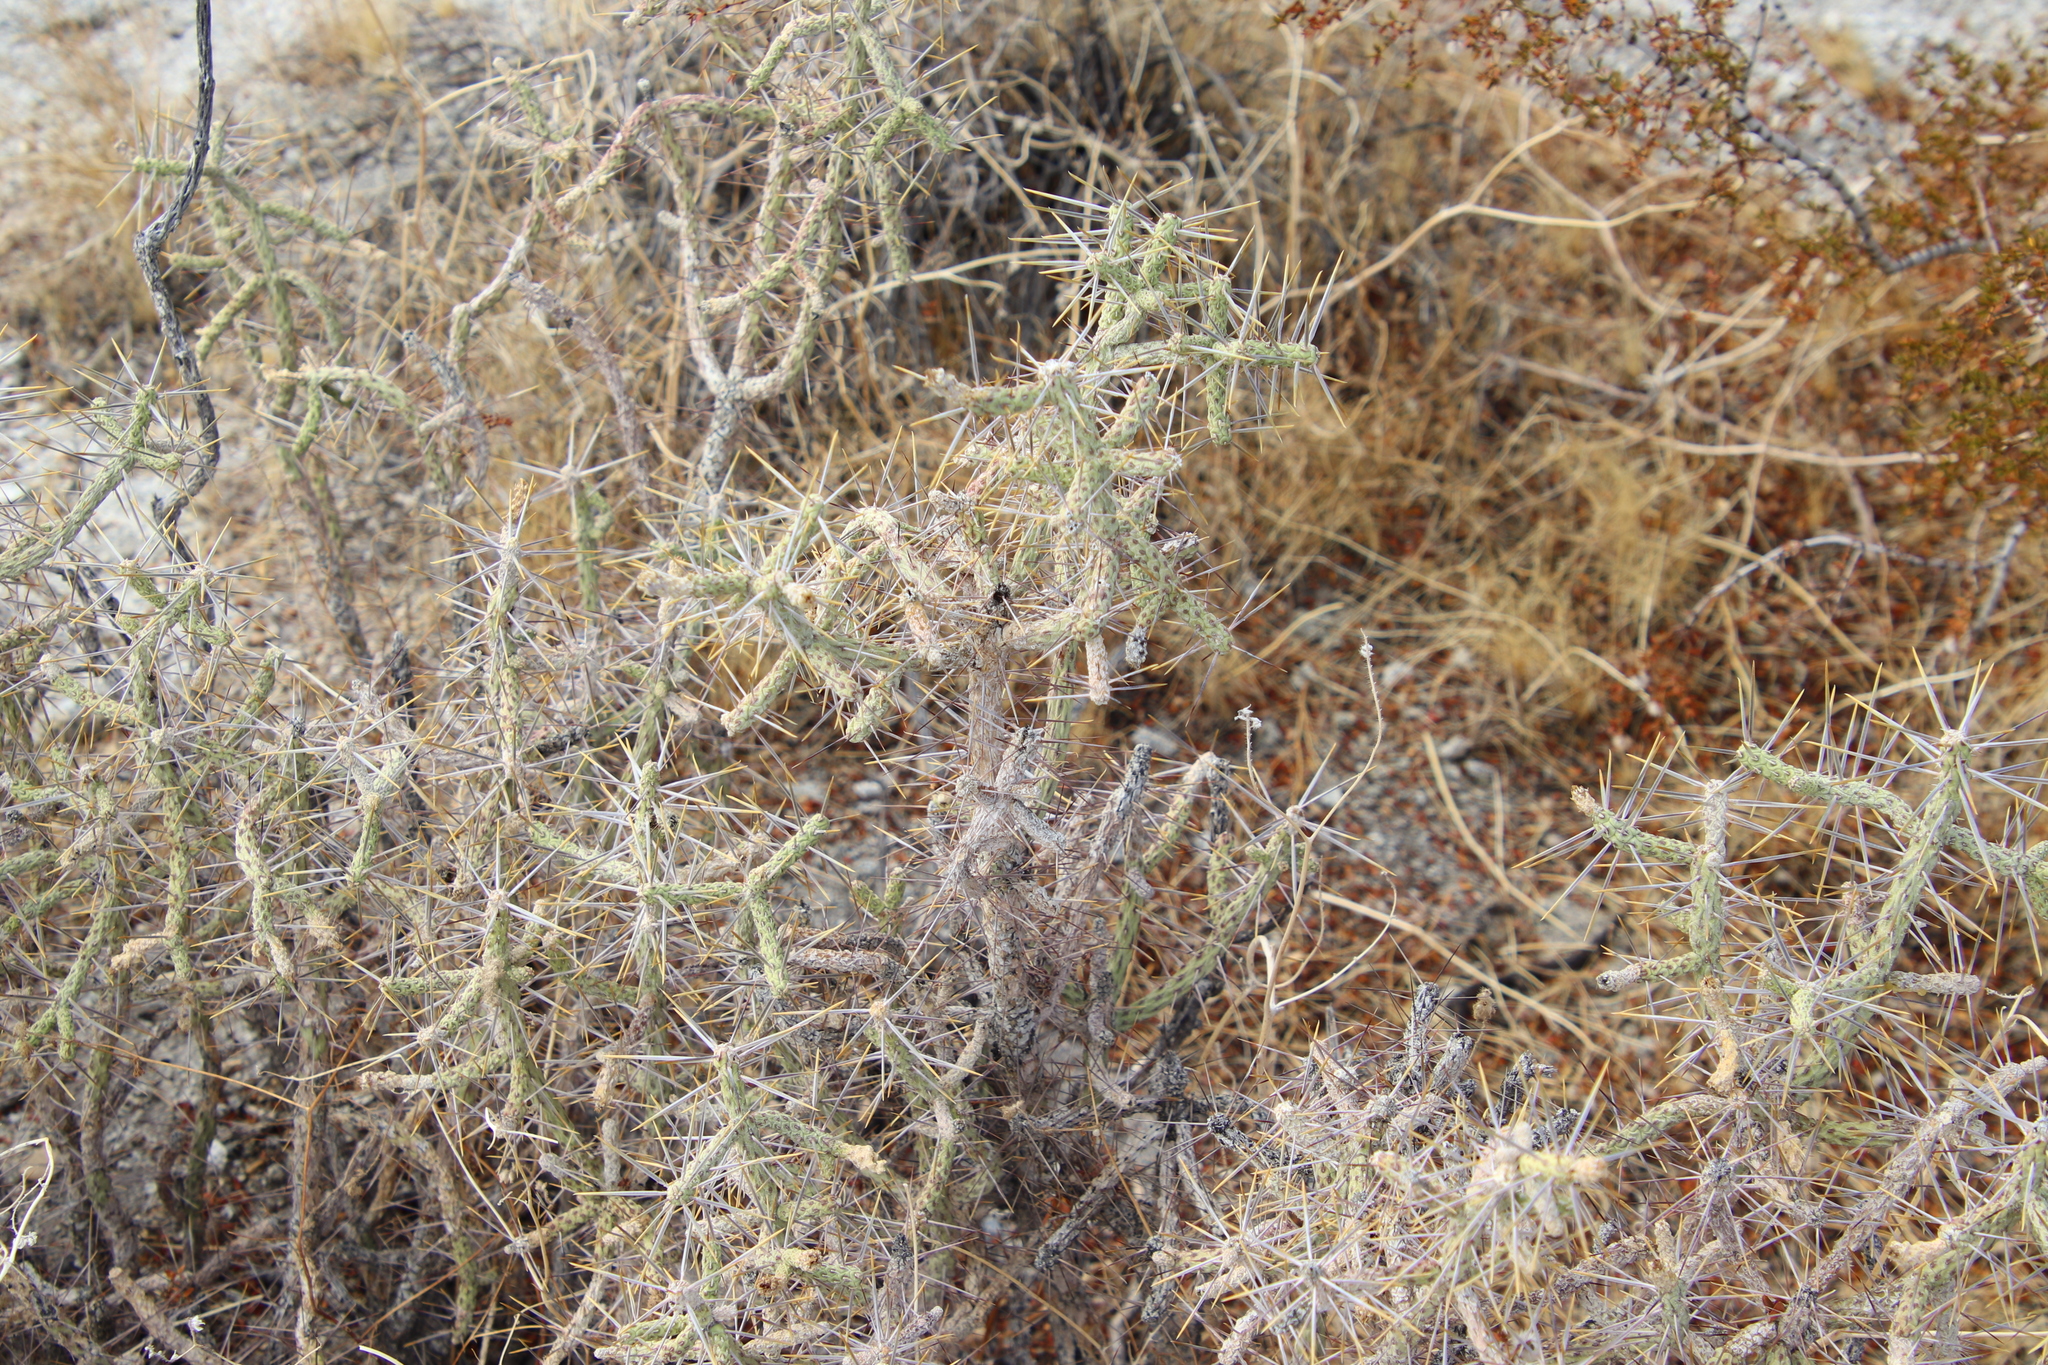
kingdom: Plantae
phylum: Tracheophyta
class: Magnoliopsida
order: Caryophyllales
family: Cactaceae
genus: Cylindropuntia
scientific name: Cylindropuntia ramosissima
